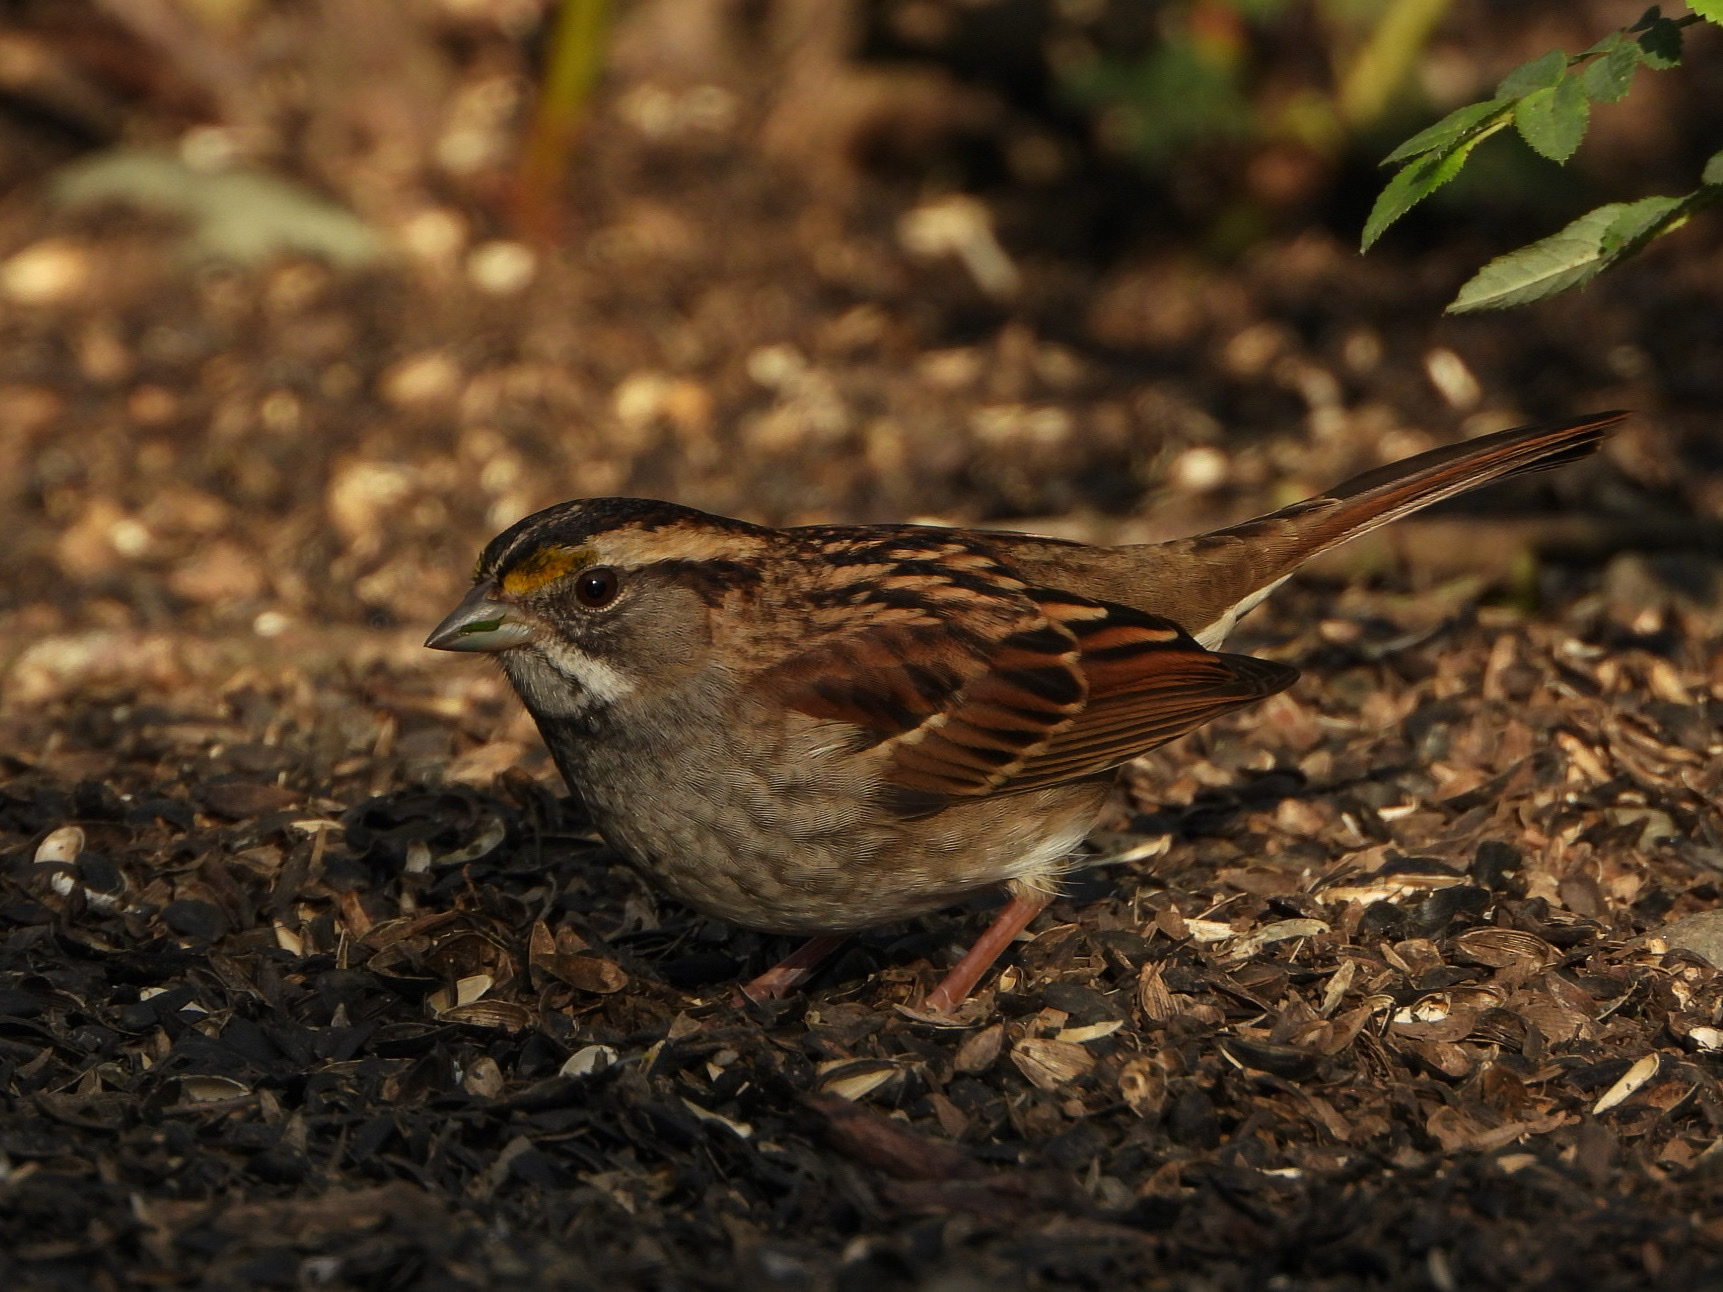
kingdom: Animalia
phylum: Chordata
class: Aves
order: Passeriformes
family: Passerellidae
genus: Zonotrichia
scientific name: Zonotrichia albicollis
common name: White-throated sparrow
